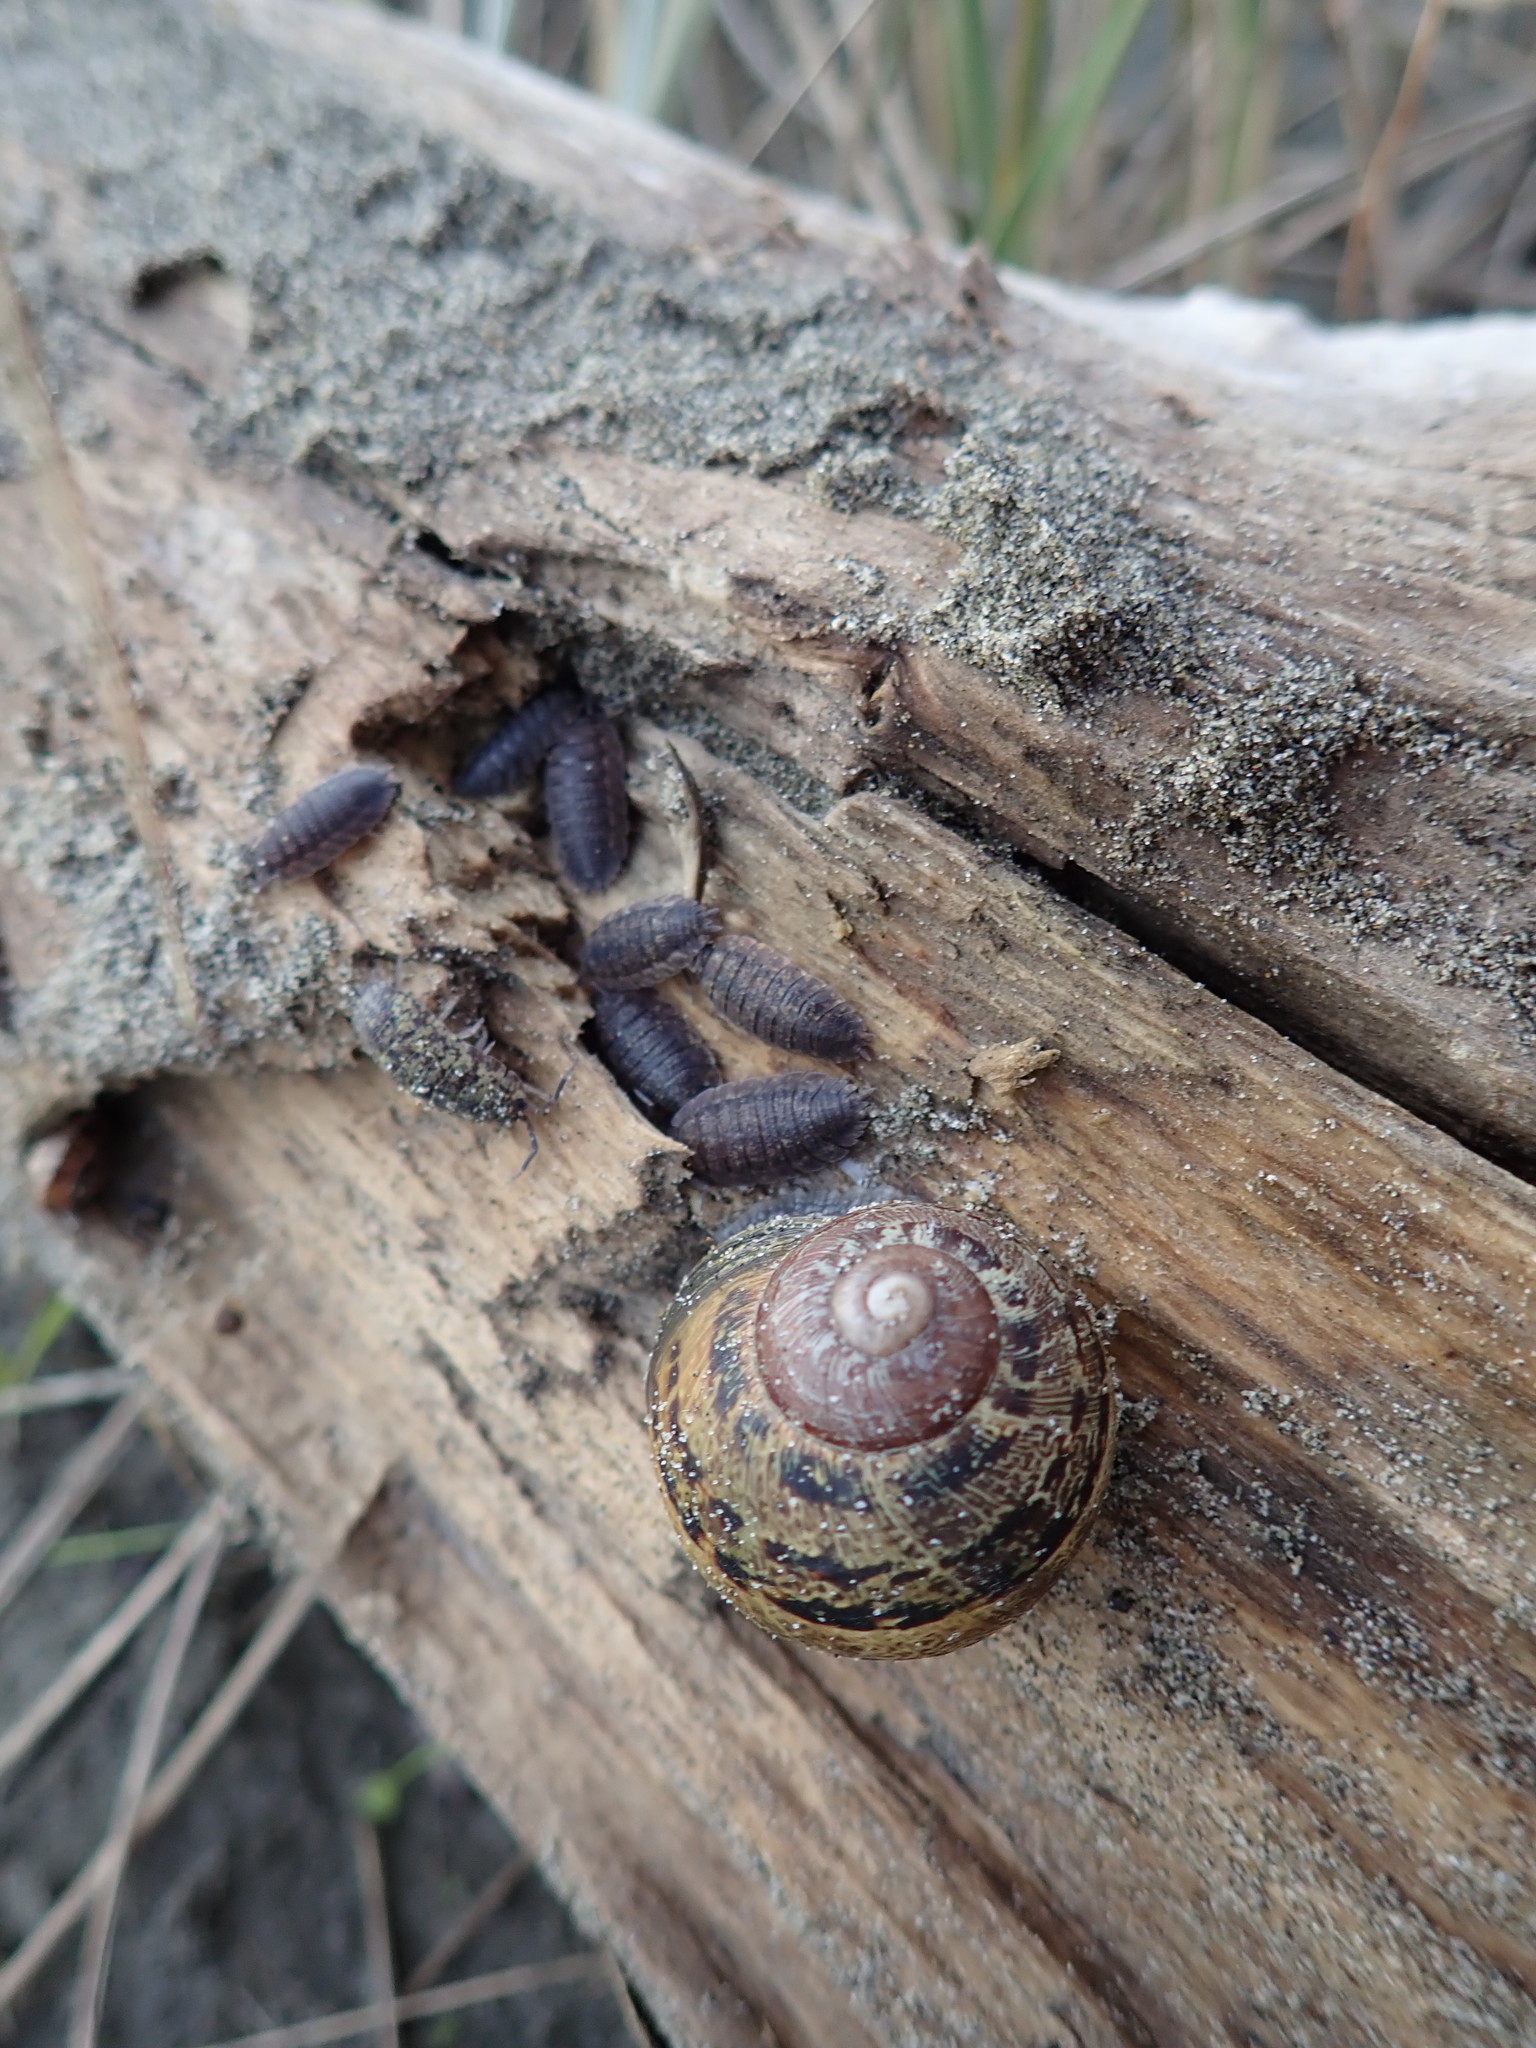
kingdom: Animalia
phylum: Mollusca
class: Gastropoda
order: Stylommatophora
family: Helicidae
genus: Cornu
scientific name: Cornu aspersum
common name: Brown garden snail
